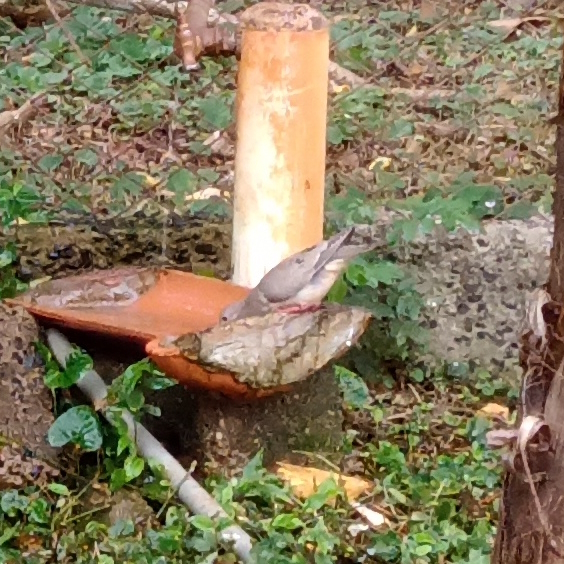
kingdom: Animalia
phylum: Chordata
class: Aves
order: Columbiformes
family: Columbidae
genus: Zenaida
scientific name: Zenaida auriculata
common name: Eared dove
